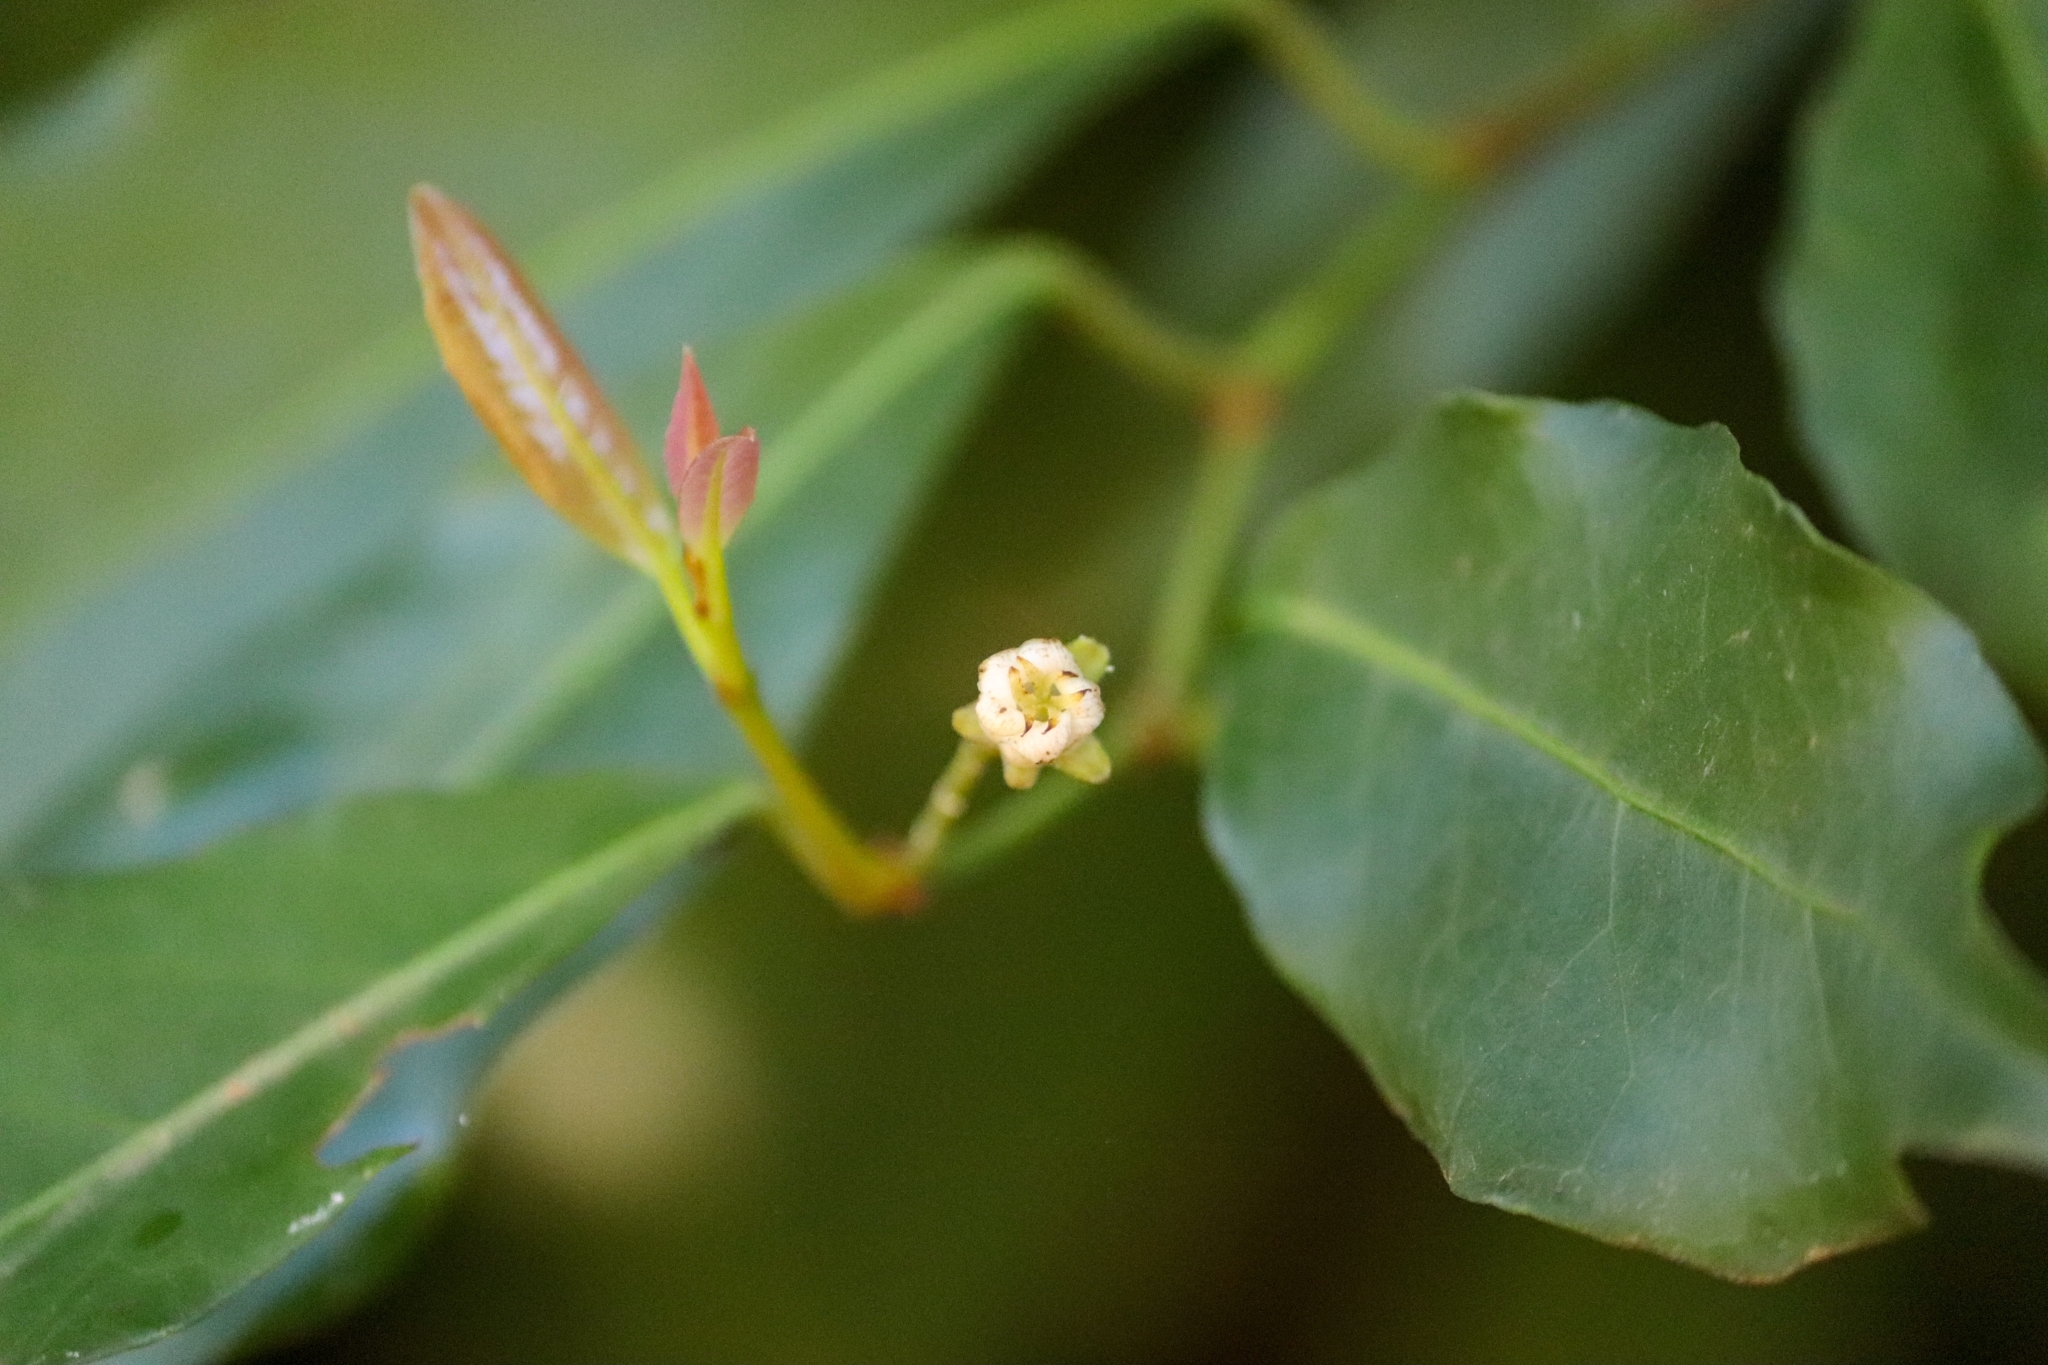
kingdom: Plantae
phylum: Tracheophyta
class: Magnoliopsida
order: Malpighiales
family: Euphorbiaceae
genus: Tritaxis
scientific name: Tritaxis glabella
